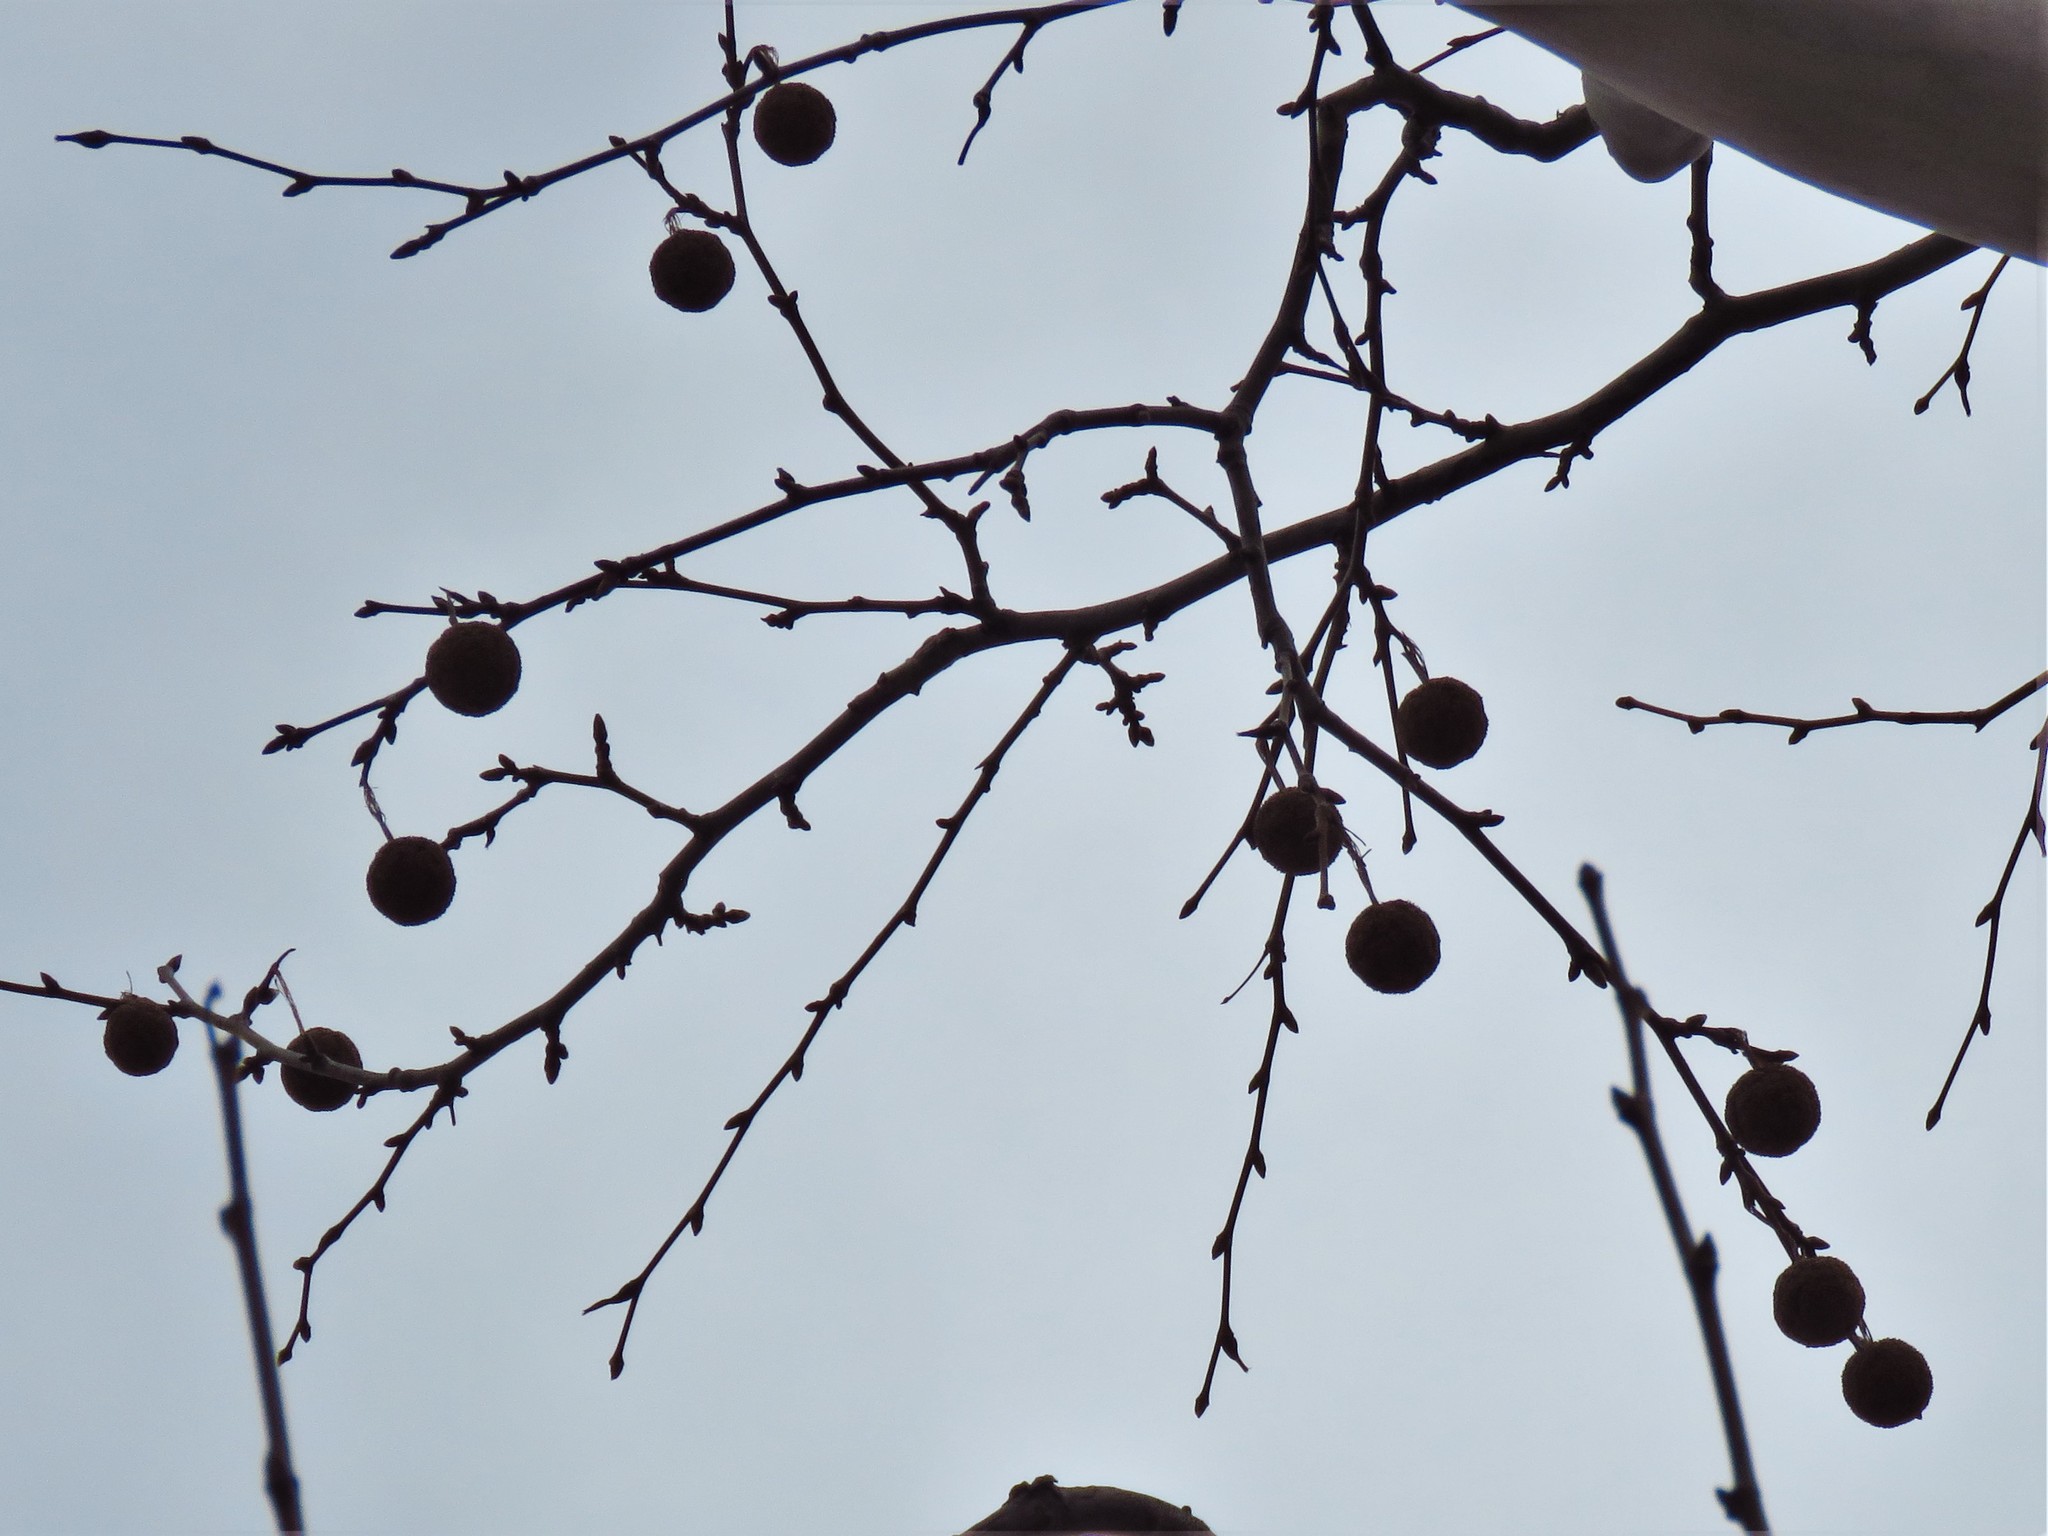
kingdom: Plantae
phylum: Tracheophyta
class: Magnoliopsida
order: Proteales
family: Platanaceae
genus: Platanus
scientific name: Platanus occidentalis
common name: American sycamore
